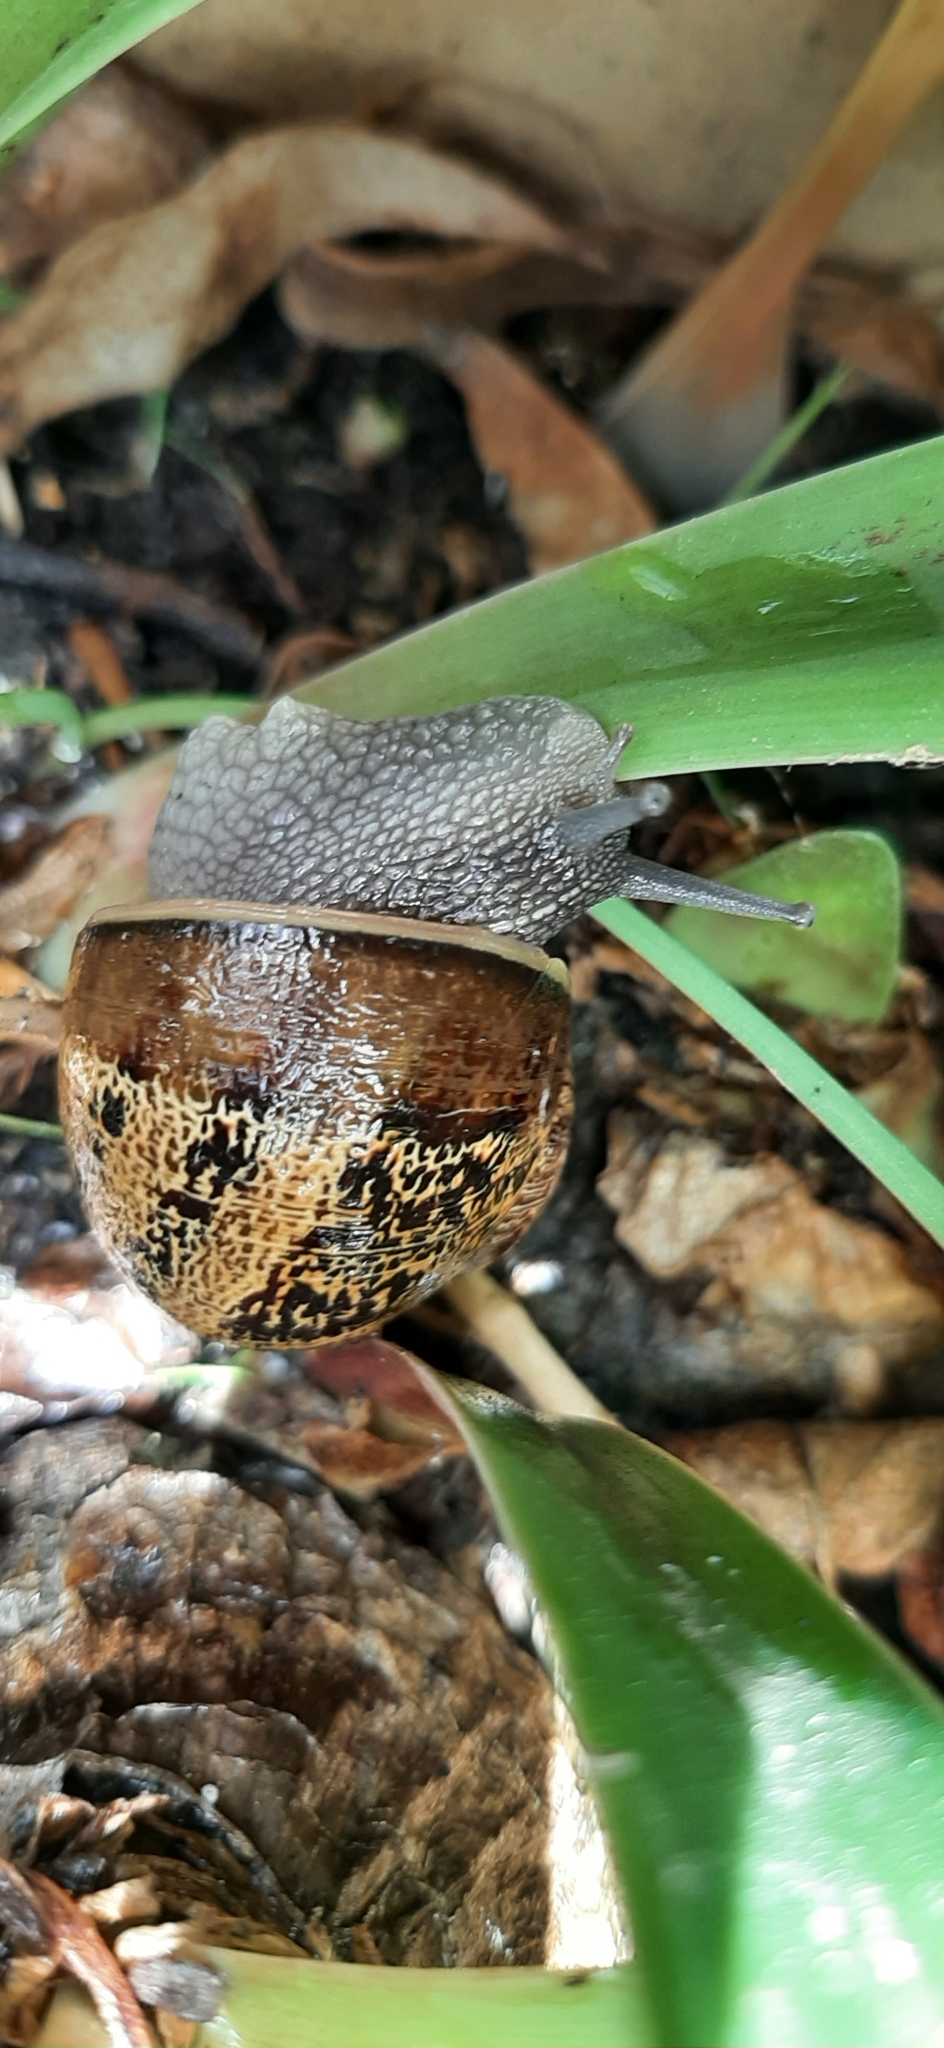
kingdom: Animalia
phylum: Mollusca
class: Gastropoda
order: Stylommatophora
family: Helicidae
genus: Cornu
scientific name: Cornu aspersum
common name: Brown garden snail
